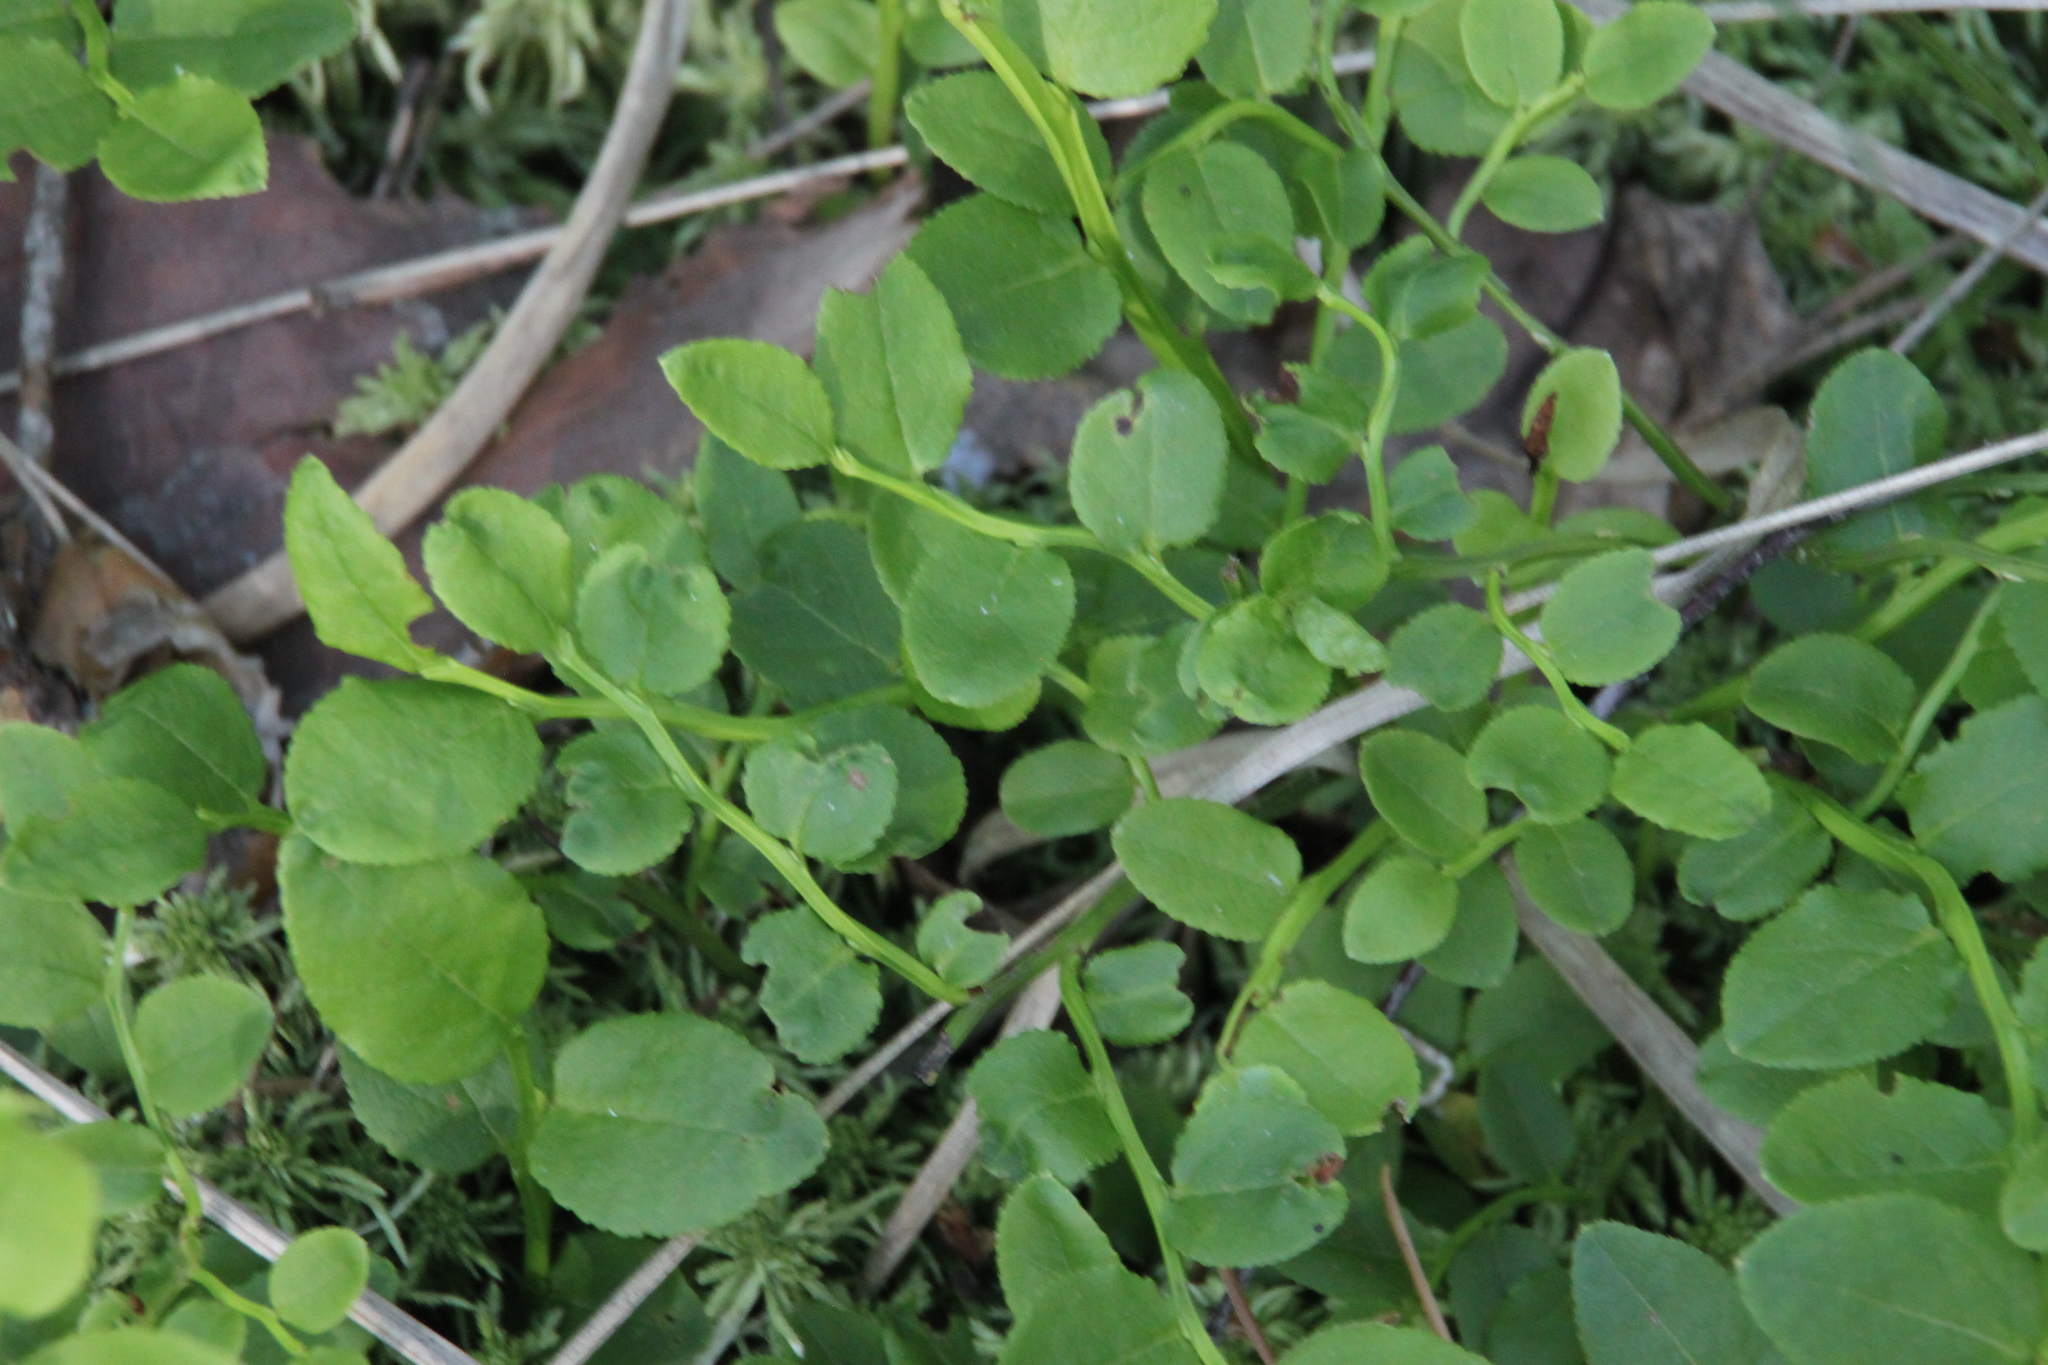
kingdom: Plantae
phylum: Tracheophyta
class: Magnoliopsida
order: Ericales
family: Ericaceae
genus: Vaccinium
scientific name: Vaccinium myrtillus
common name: Bilberry
